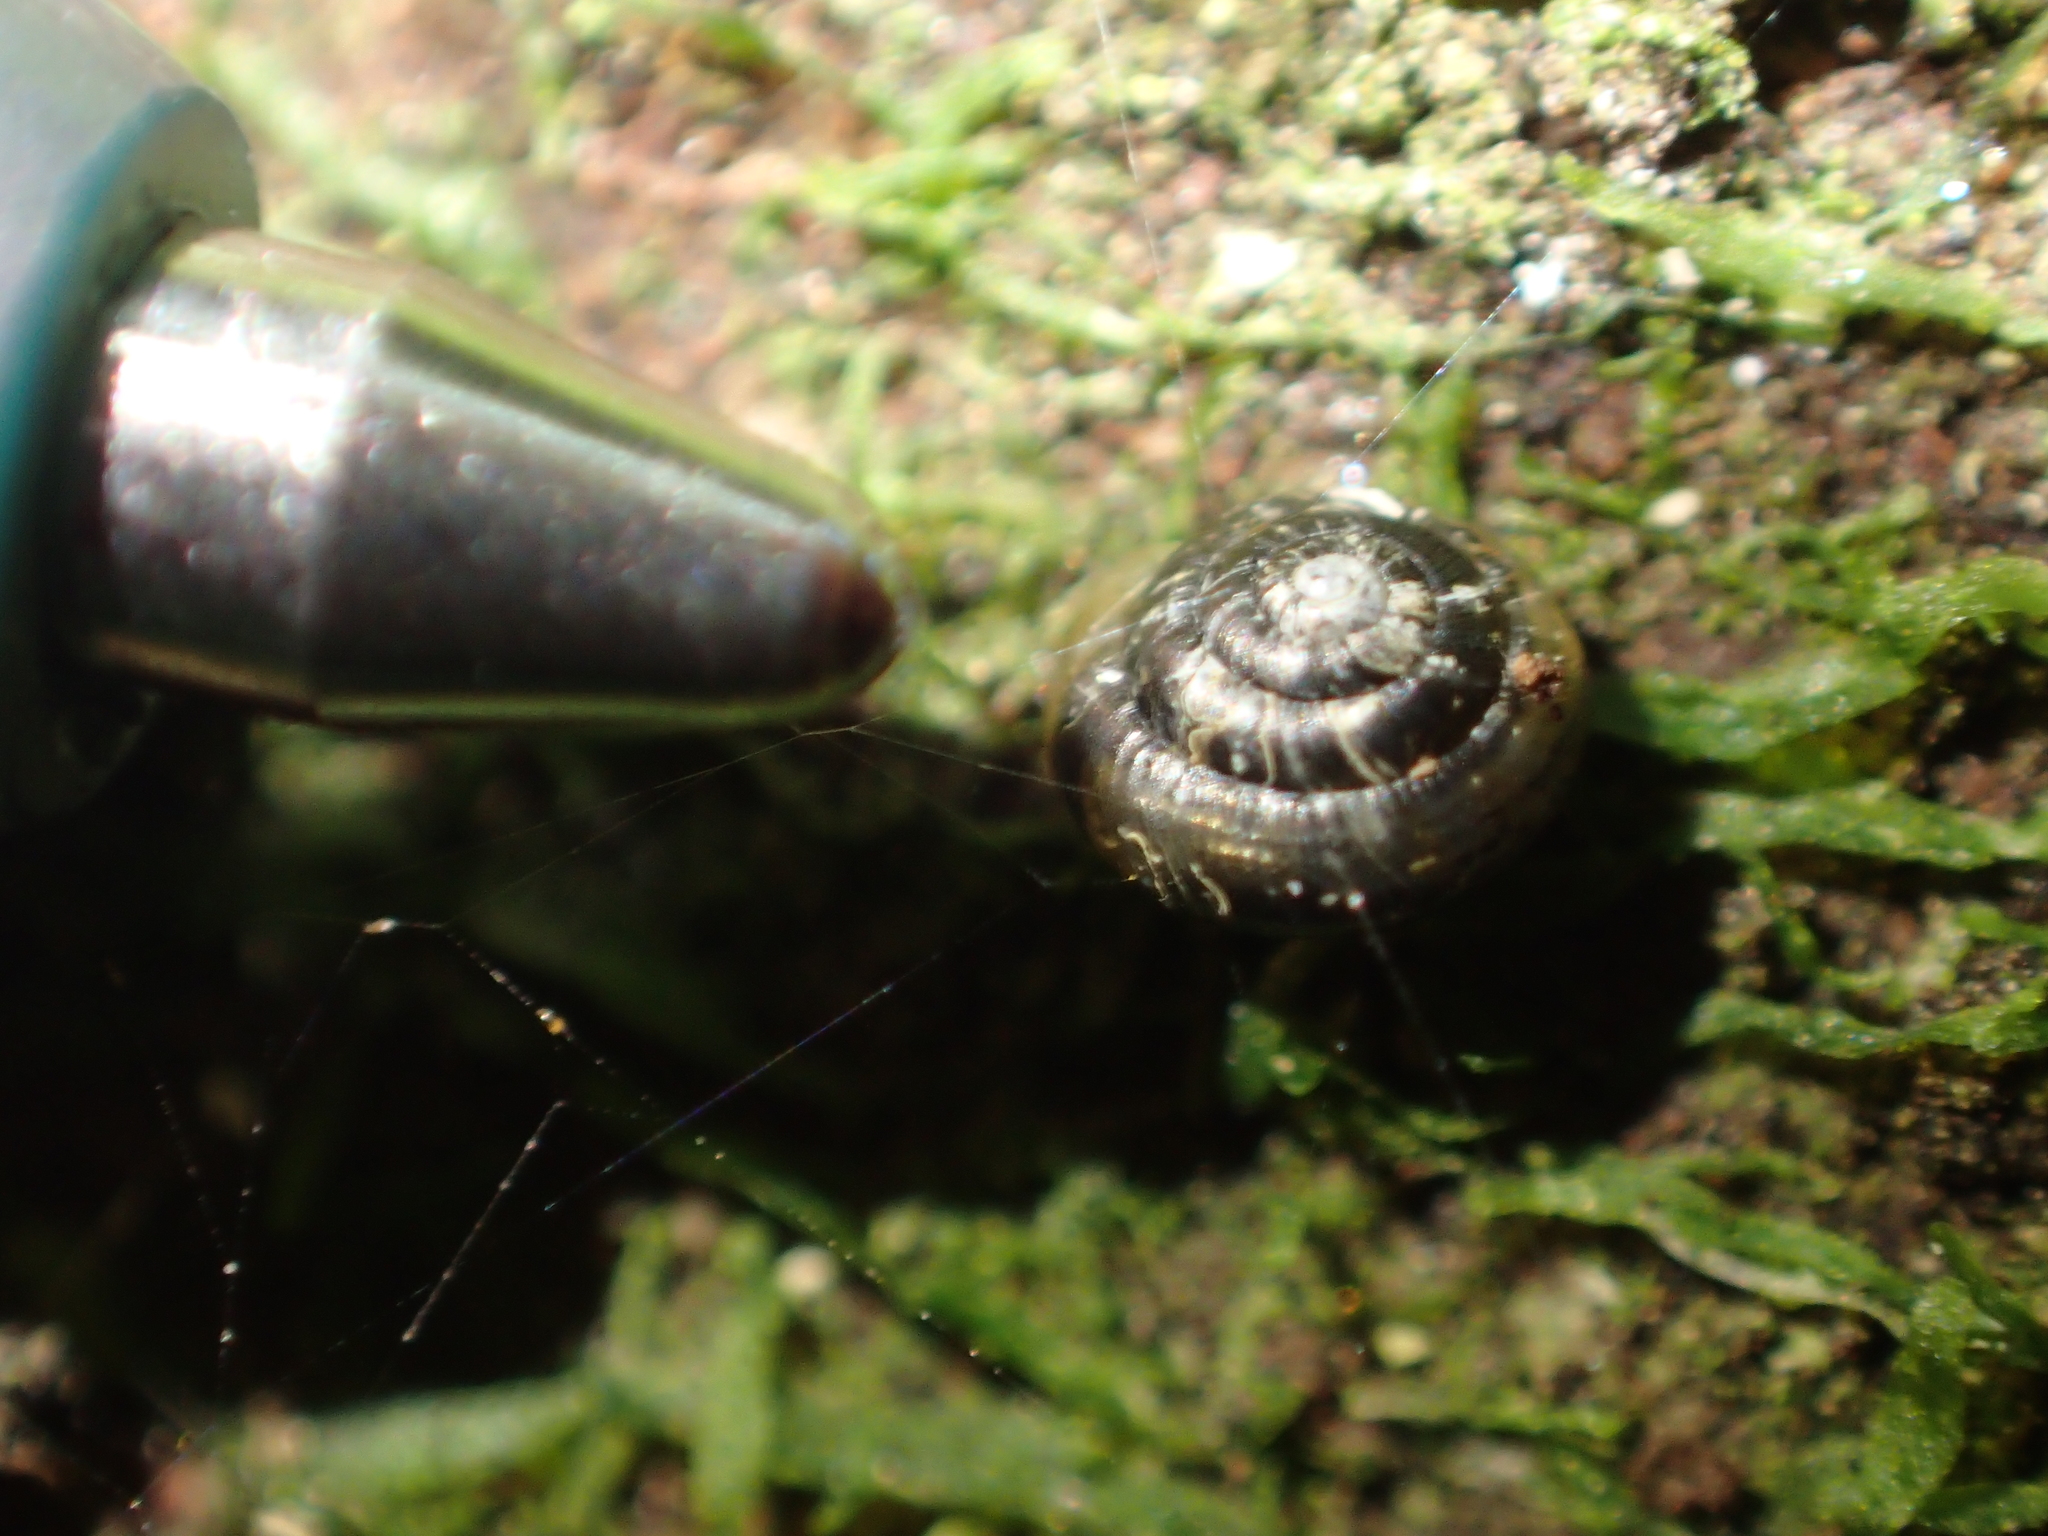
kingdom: Animalia
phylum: Mollusca
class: Gastropoda
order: Stylommatophora
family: Punctidae
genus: Phrixgnathus
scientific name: Phrixgnathus ariel
